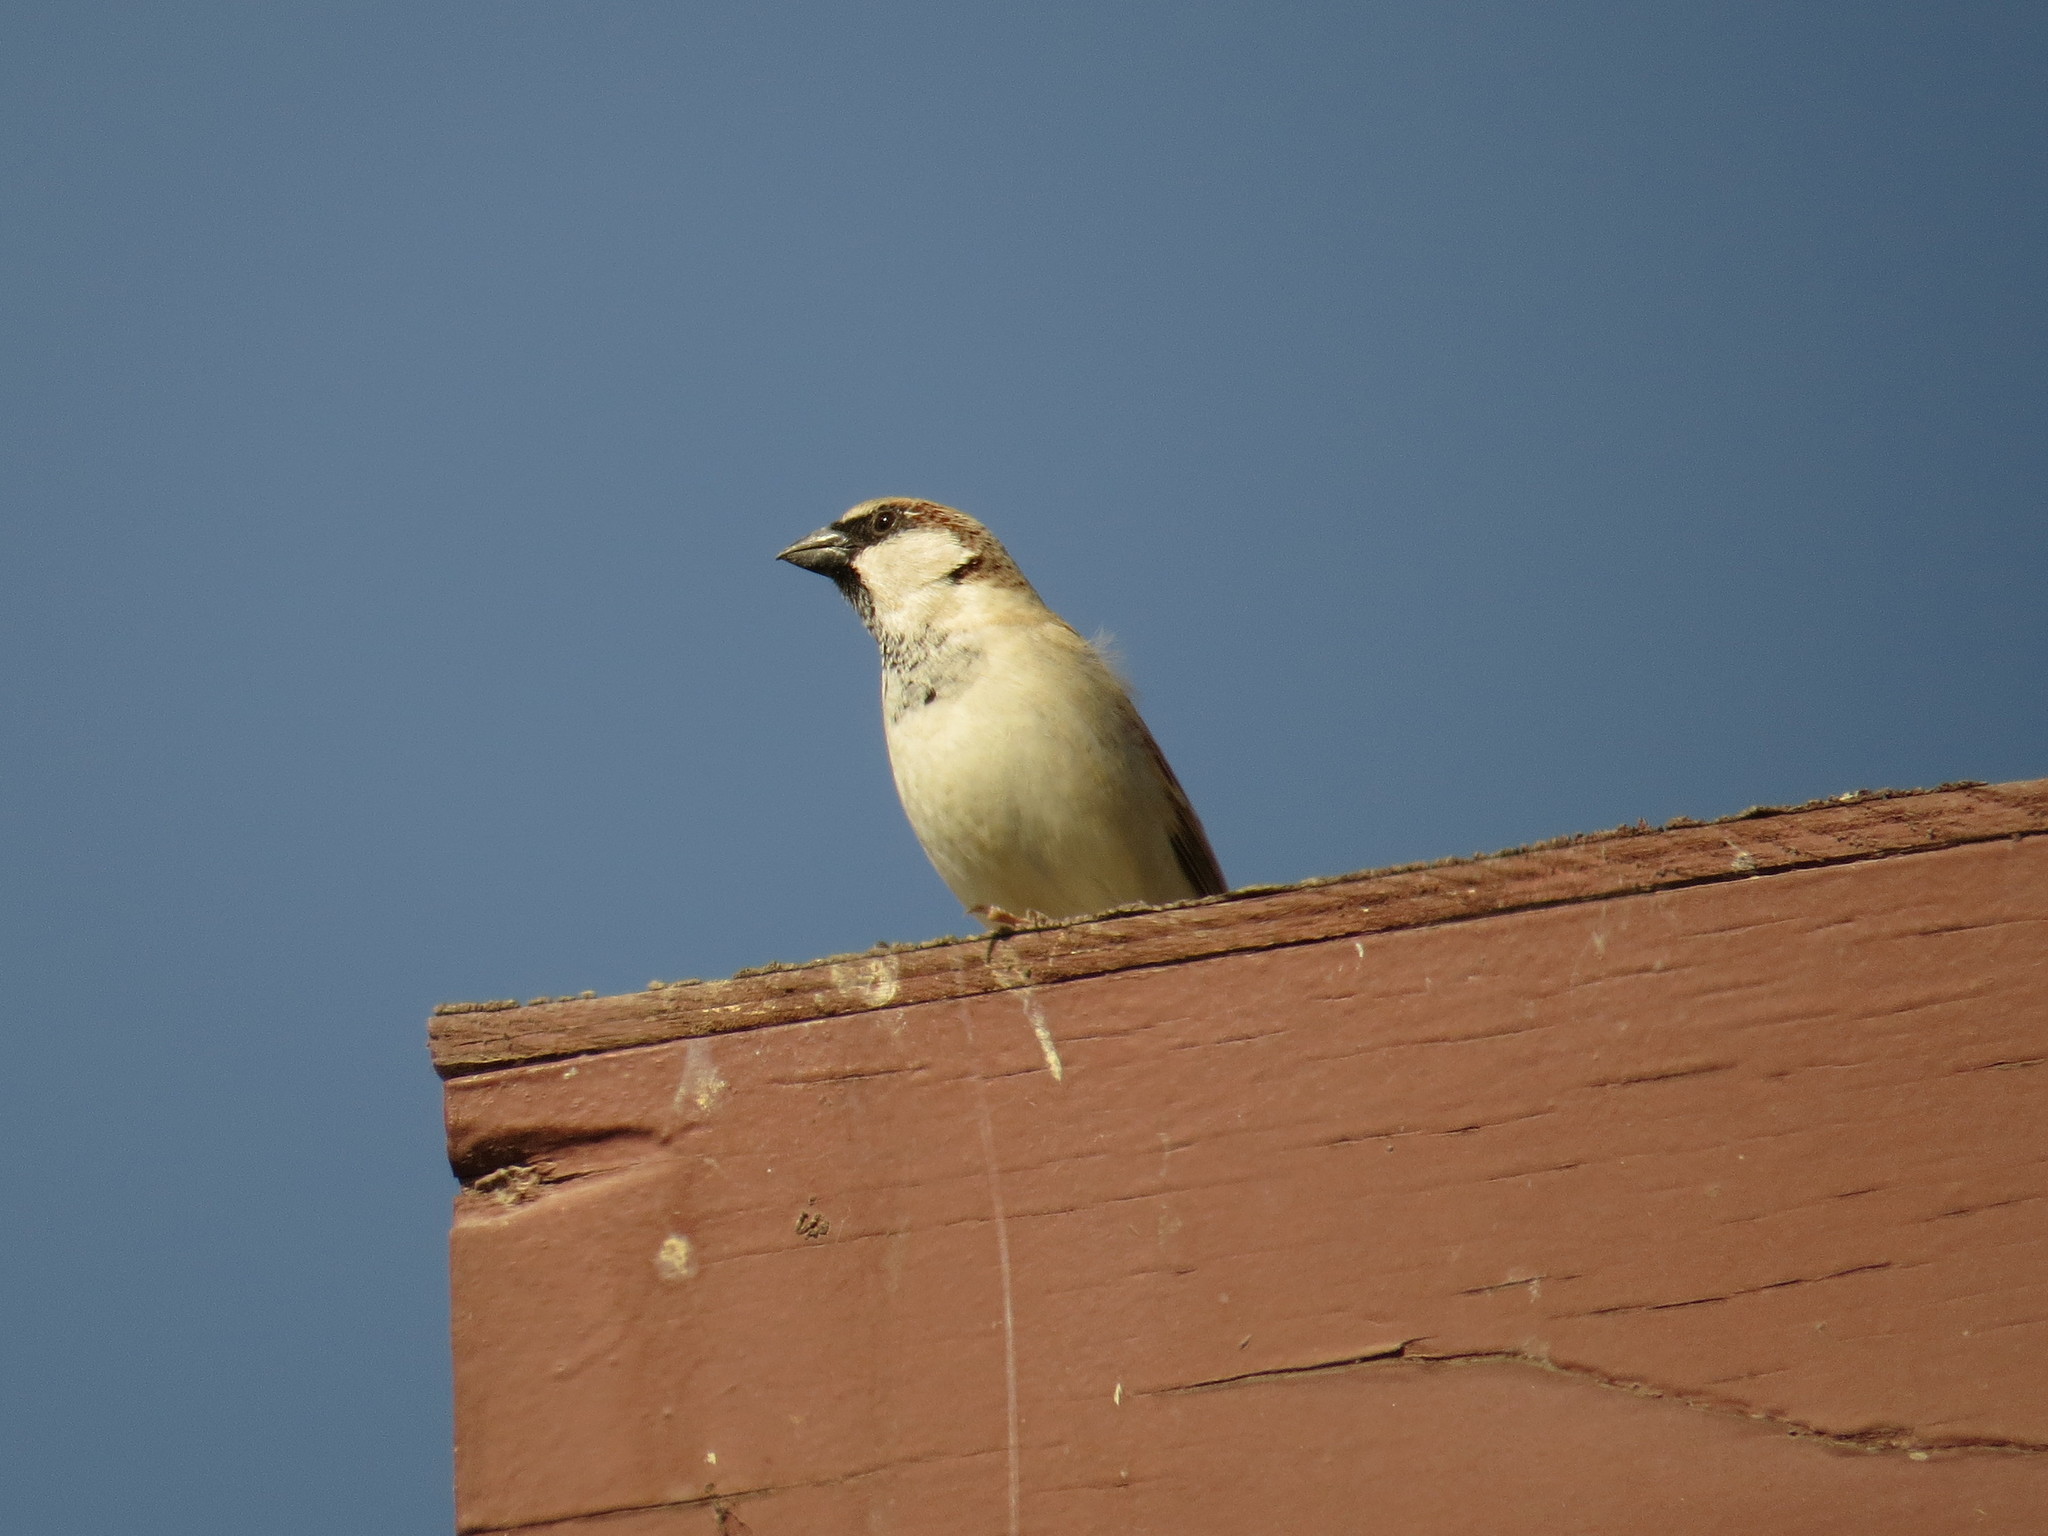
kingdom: Animalia
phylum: Chordata
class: Aves
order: Passeriformes
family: Passeridae
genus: Passer
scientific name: Passer domesticus
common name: House sparrow
